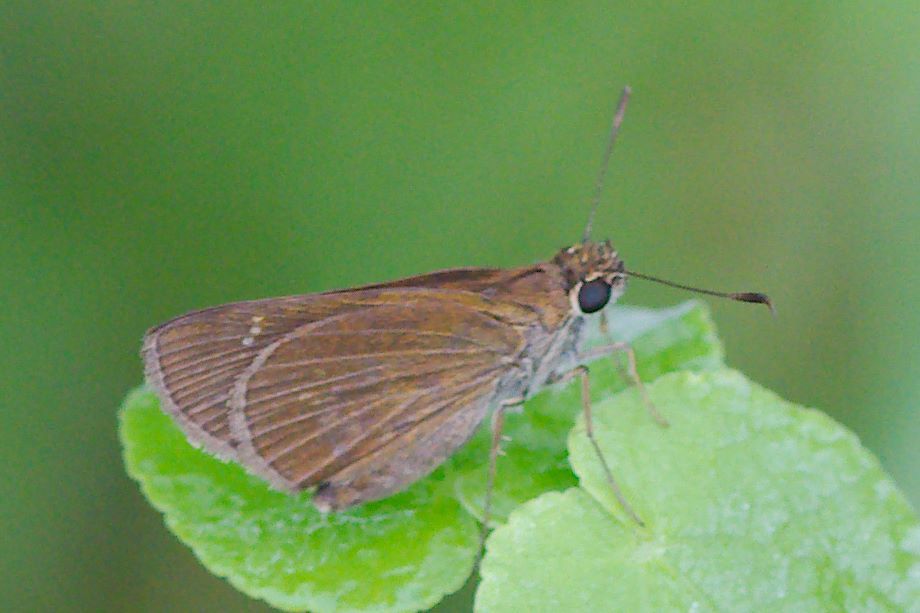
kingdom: Animalia
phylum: Arthropoda
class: Insecta
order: Lepidoptera
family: Hesperiidae
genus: Cymaenes
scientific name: Cymaenes tripunctus
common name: Dingy dotted skipper
